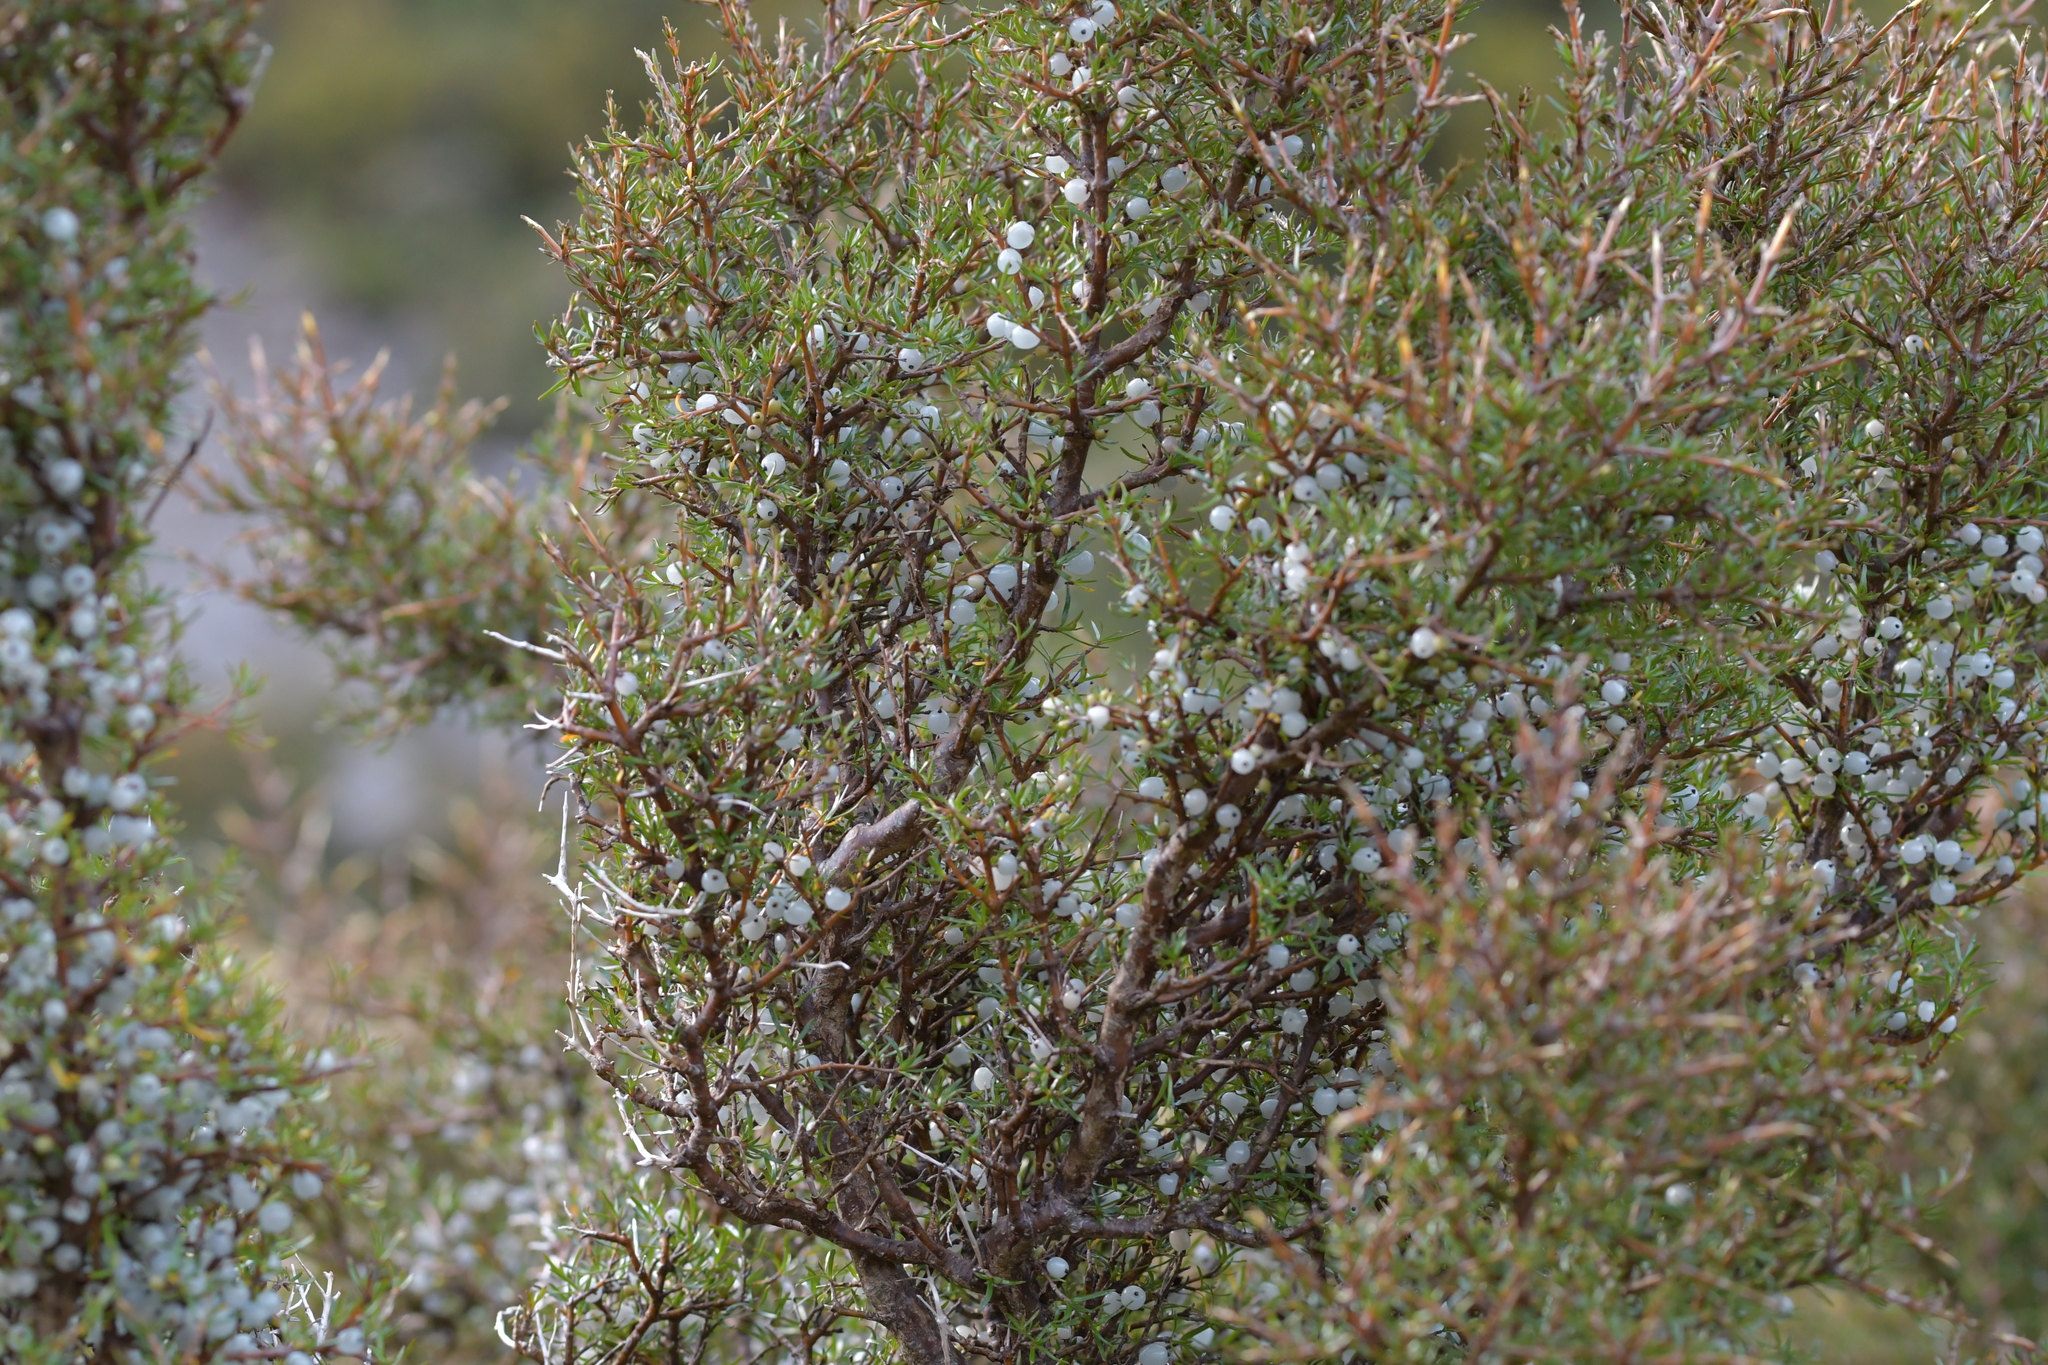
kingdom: Plantae
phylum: Tracheophyta
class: Magnoliopsida
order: Gentianales
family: Rubiaceae
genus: Coprosma
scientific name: Coprosma rugosa
